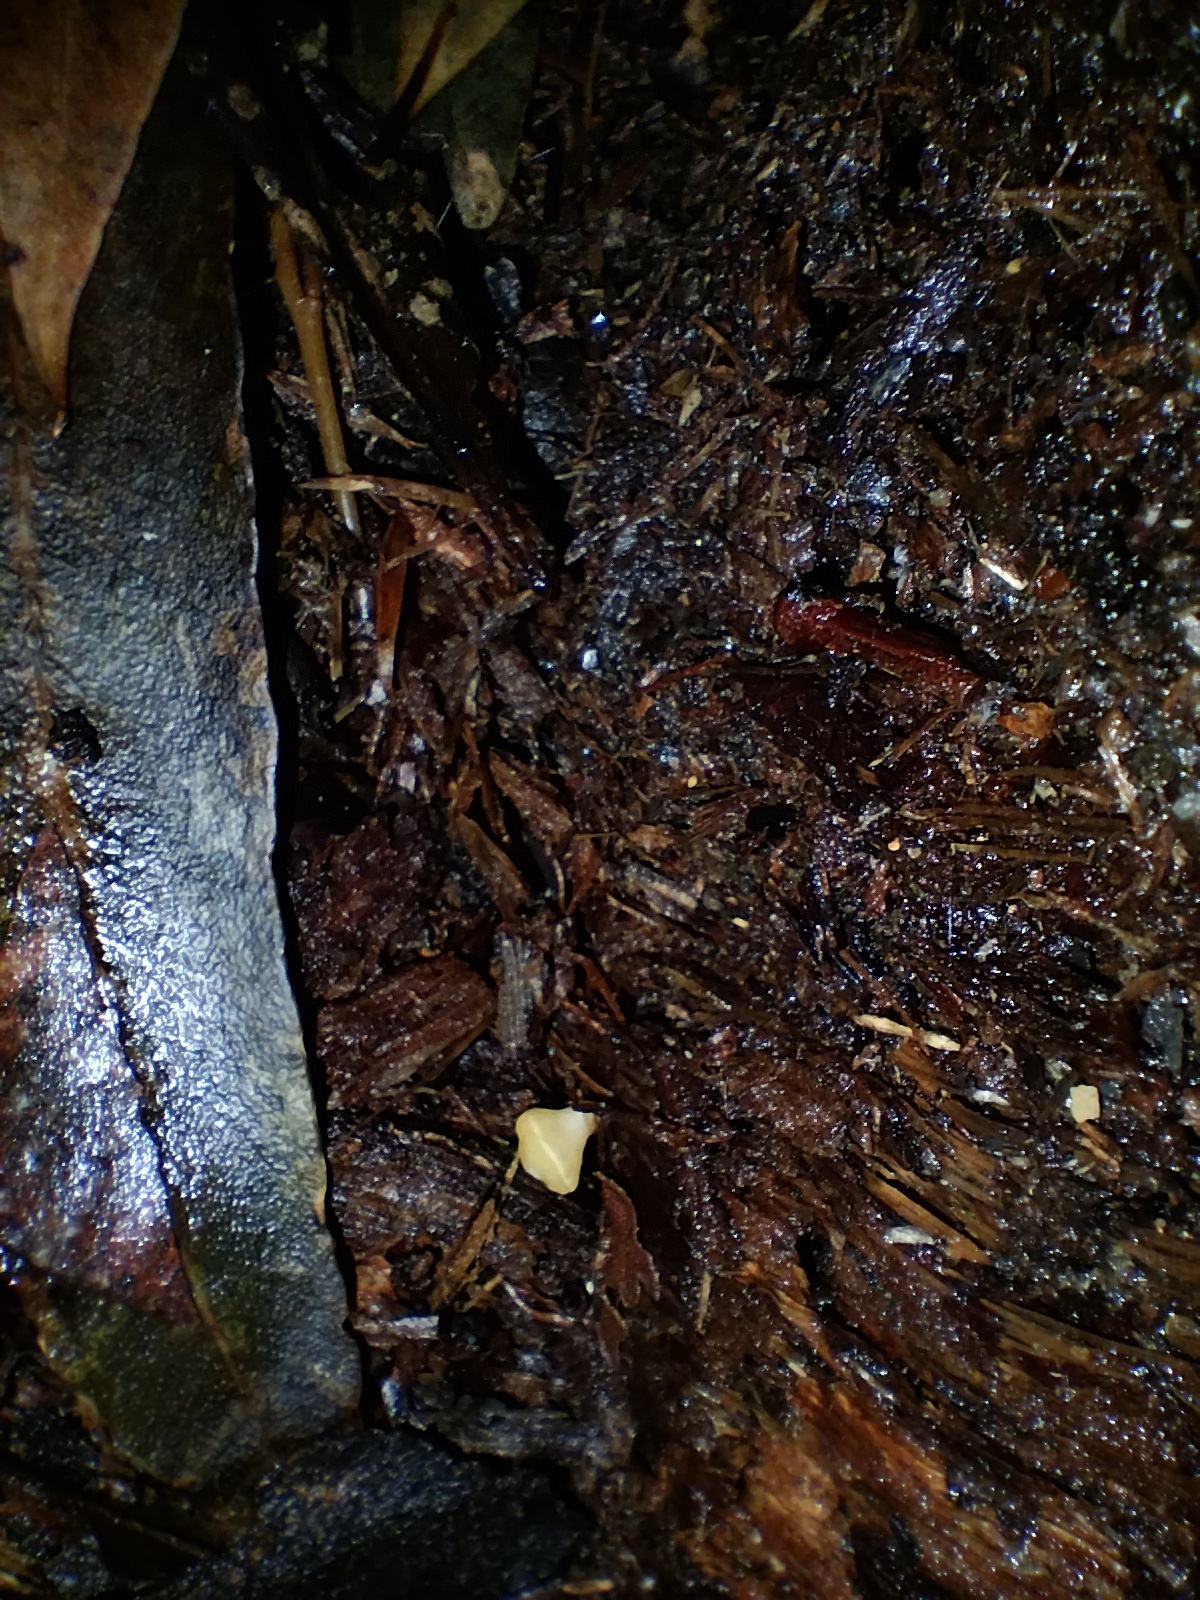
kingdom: Fungi
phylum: Ascomycota
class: Leotiomycetes
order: Helotiales
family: Helotiaceae
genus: Phaeohelotium
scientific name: Phaeohelotium baileyanum
